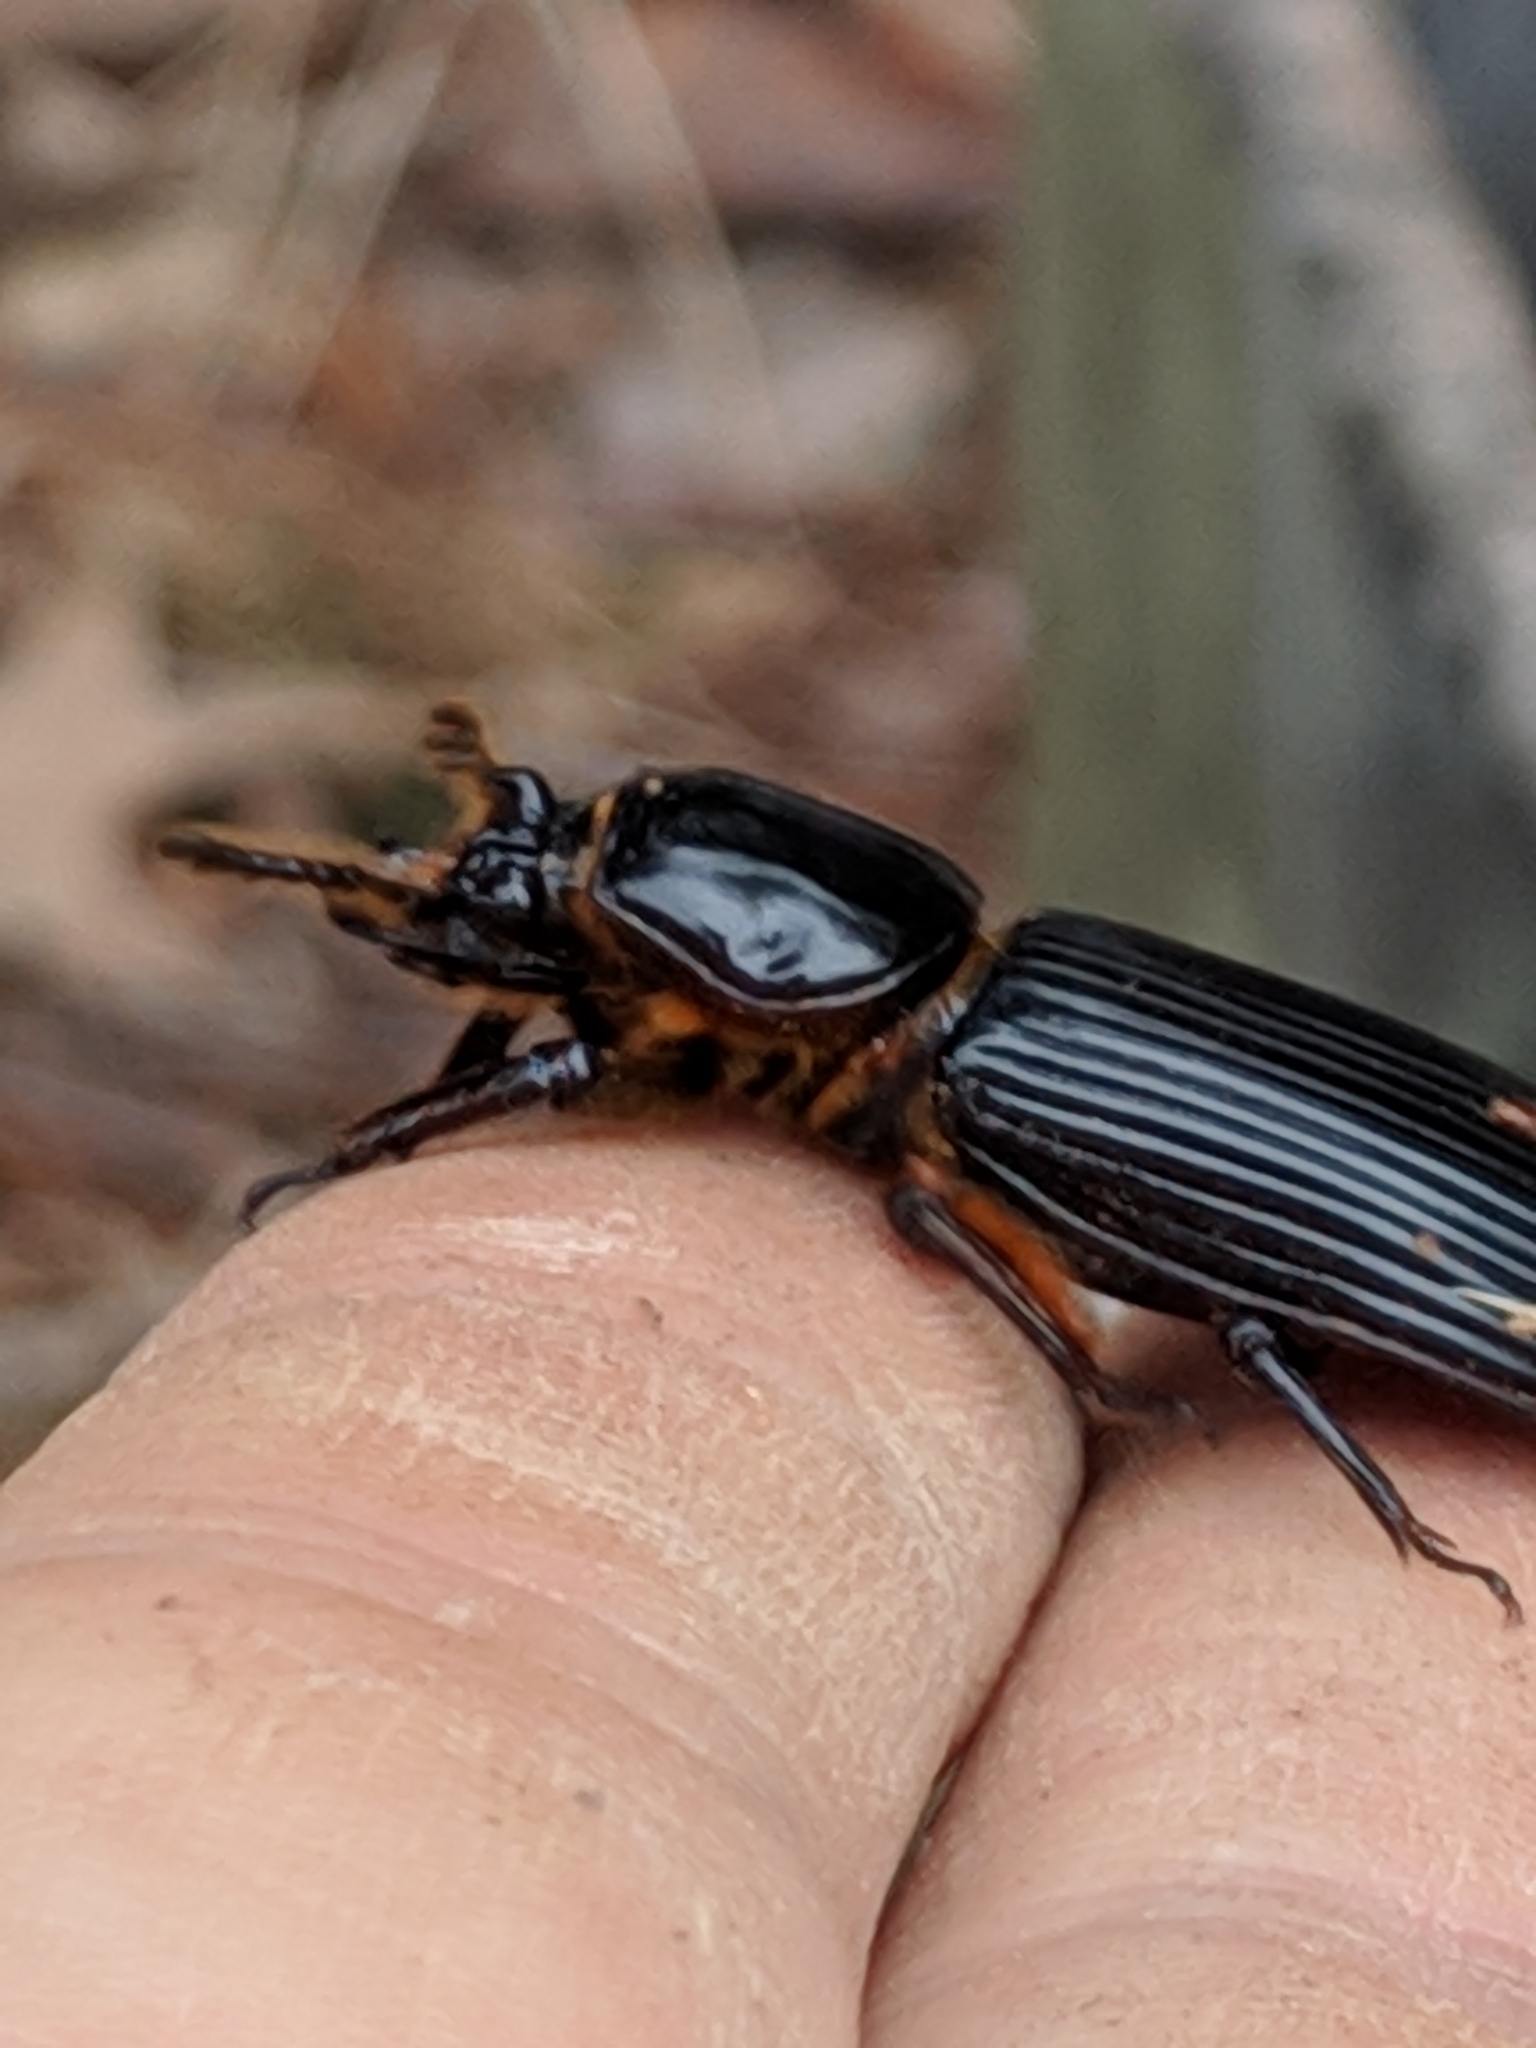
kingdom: Animalia
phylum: Arthropoda
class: Insecta
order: Coleoptera
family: Passalidae
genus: Odontotaenius
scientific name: Odontotaenius disjunctus
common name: Patent leather beetle
